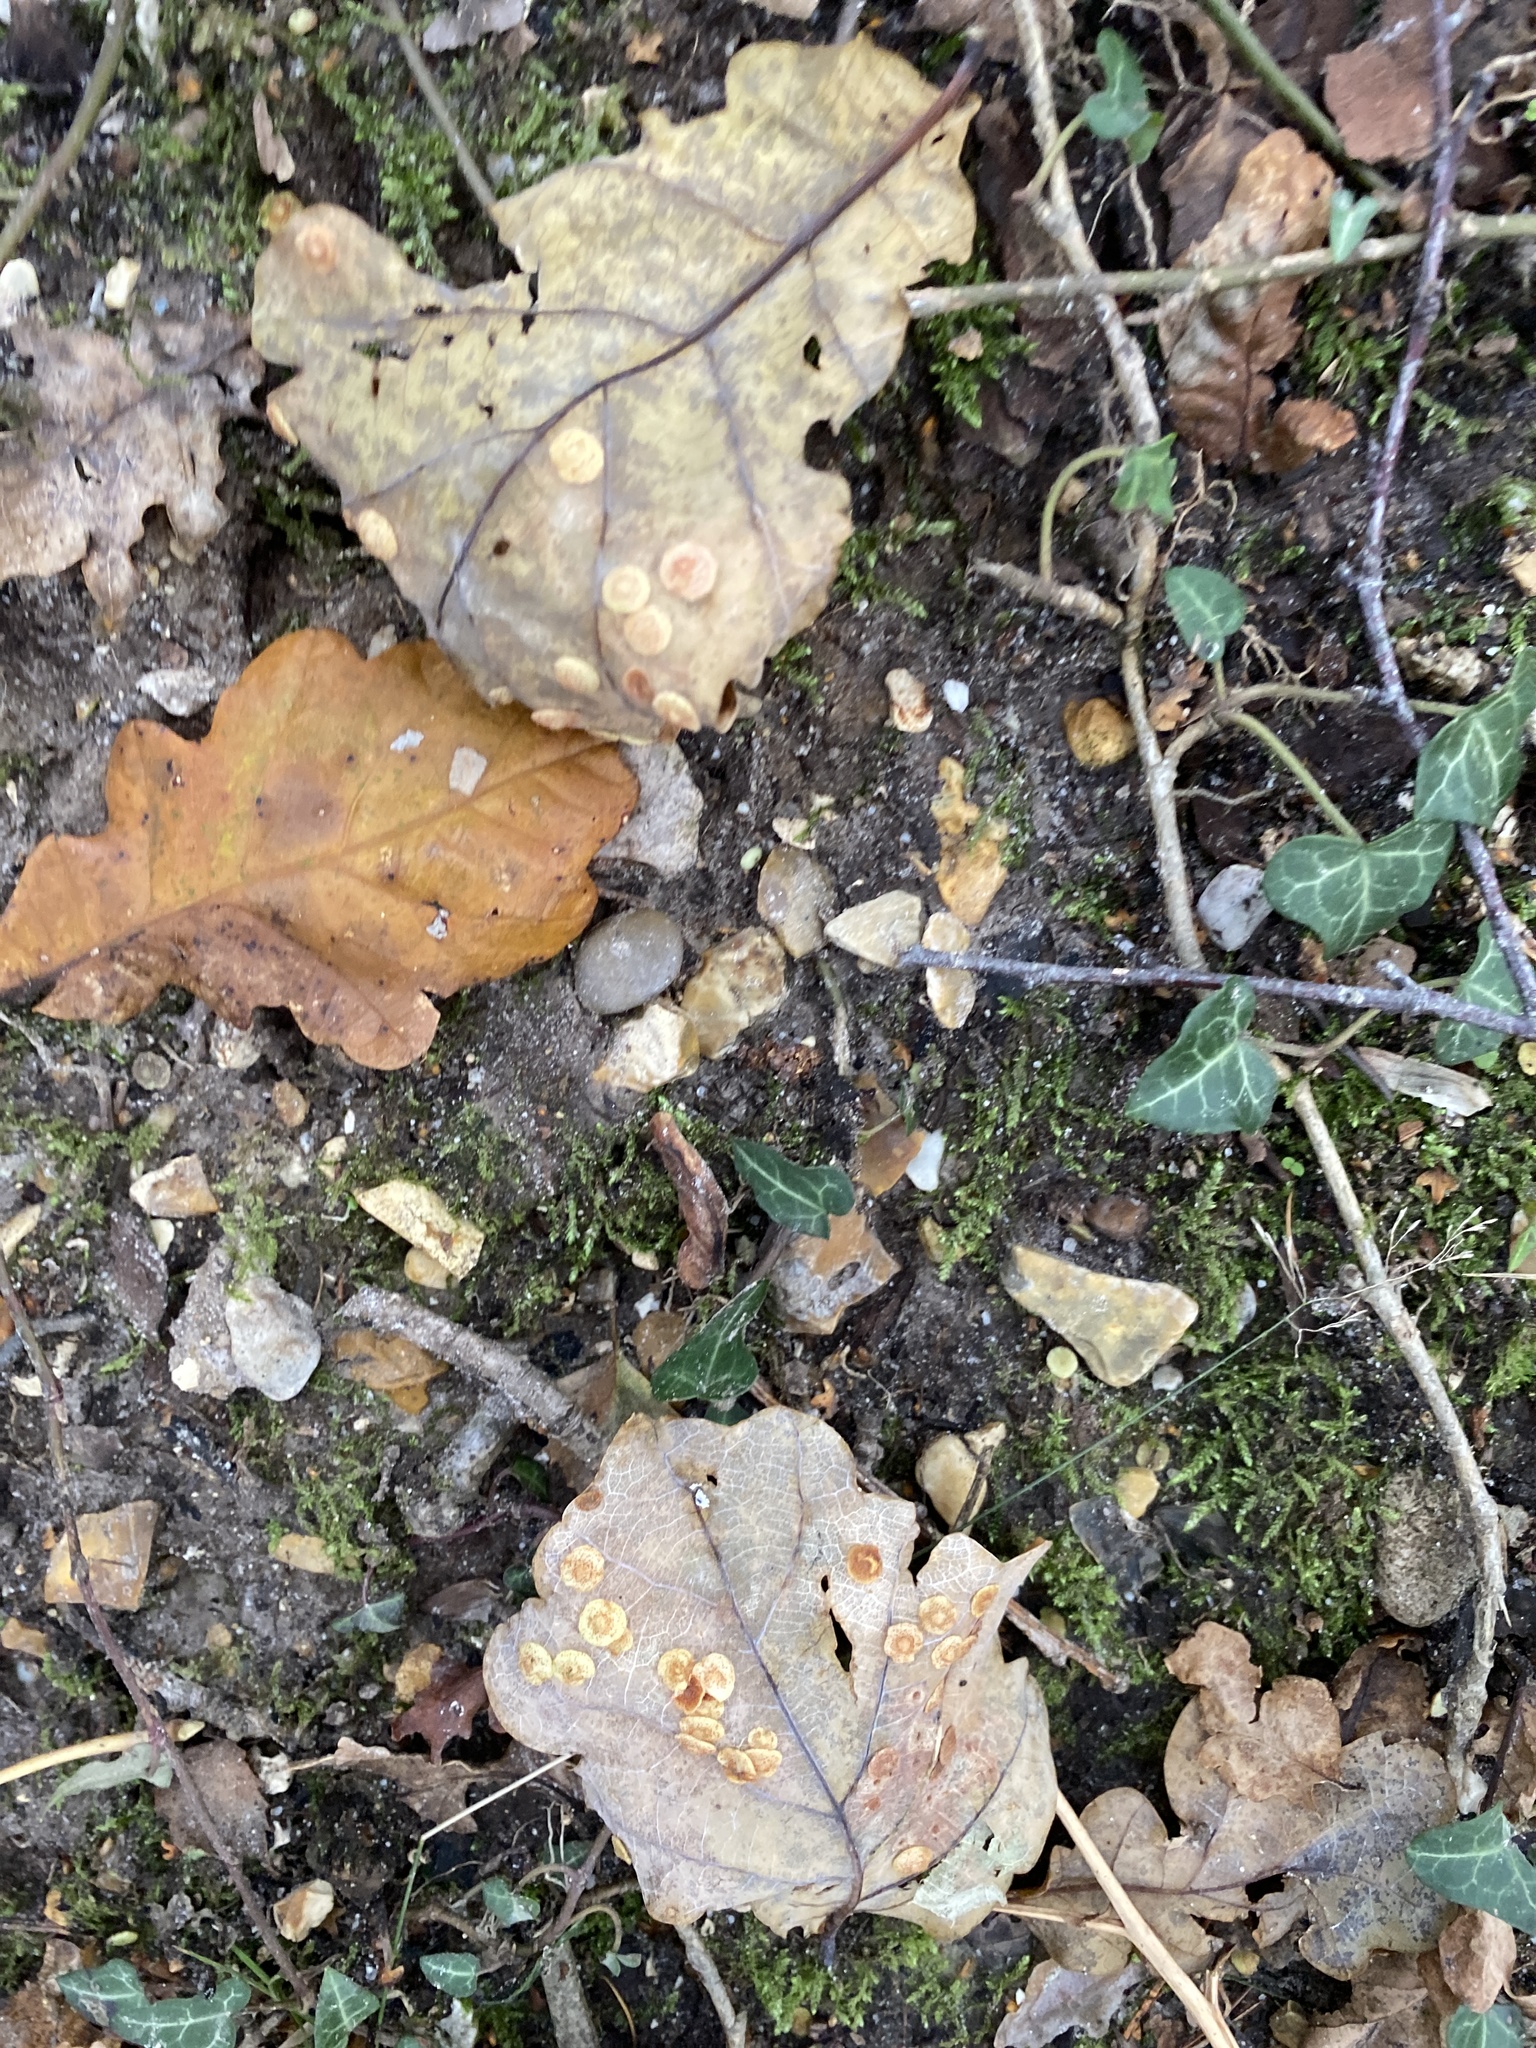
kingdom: Plantae
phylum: Tracheophyta
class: Magnoliopsida
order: Fagales
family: Fagaceae
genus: Quercus
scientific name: Quercus robur
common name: Pedunculate oak
